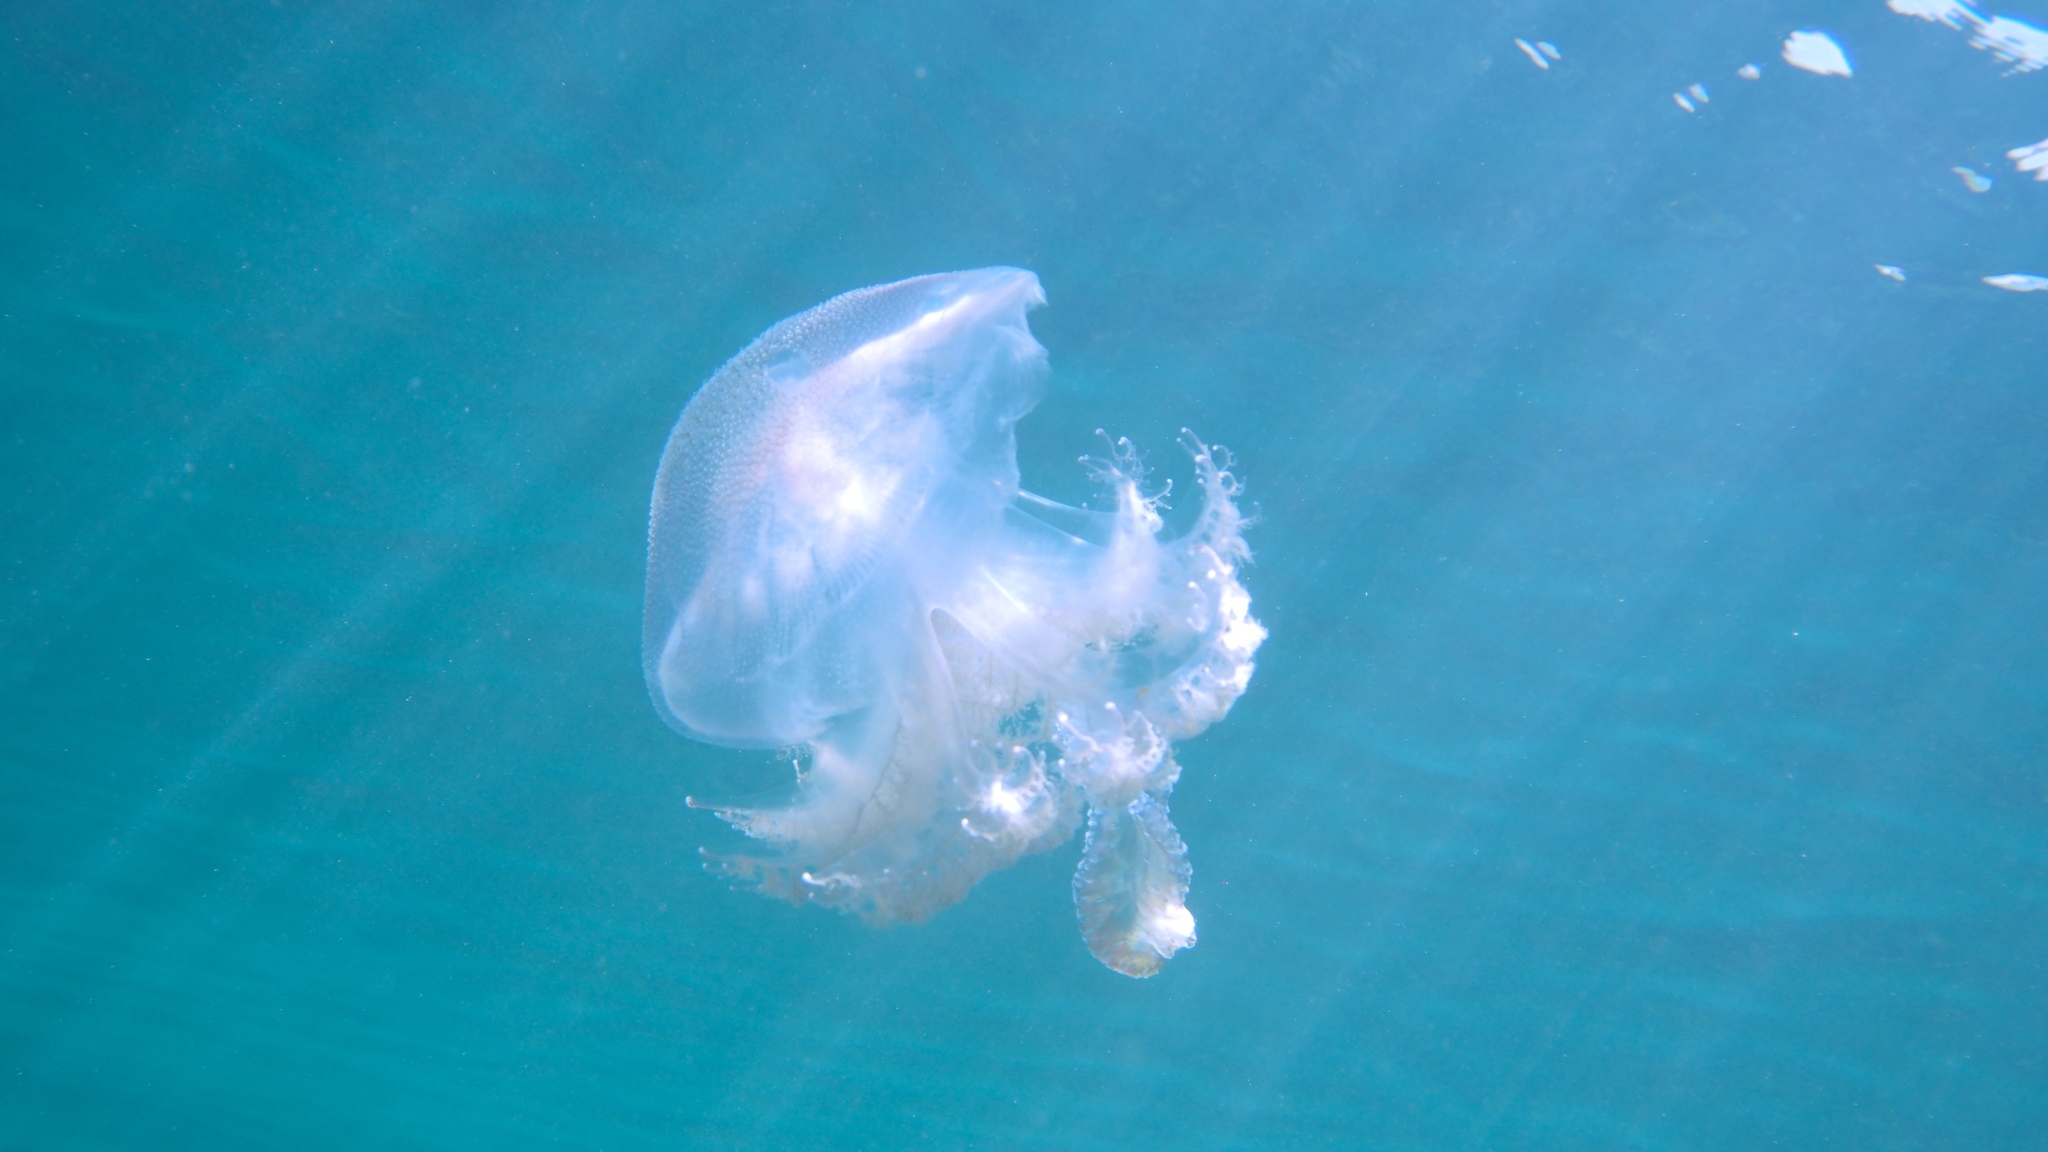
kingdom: Animalia
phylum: Cnidaria
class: Scyphozoa
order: Rhizostomeae
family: Lychnorhizidae
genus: Pseudorhiza
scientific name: Pseudorhiza haeckeli
